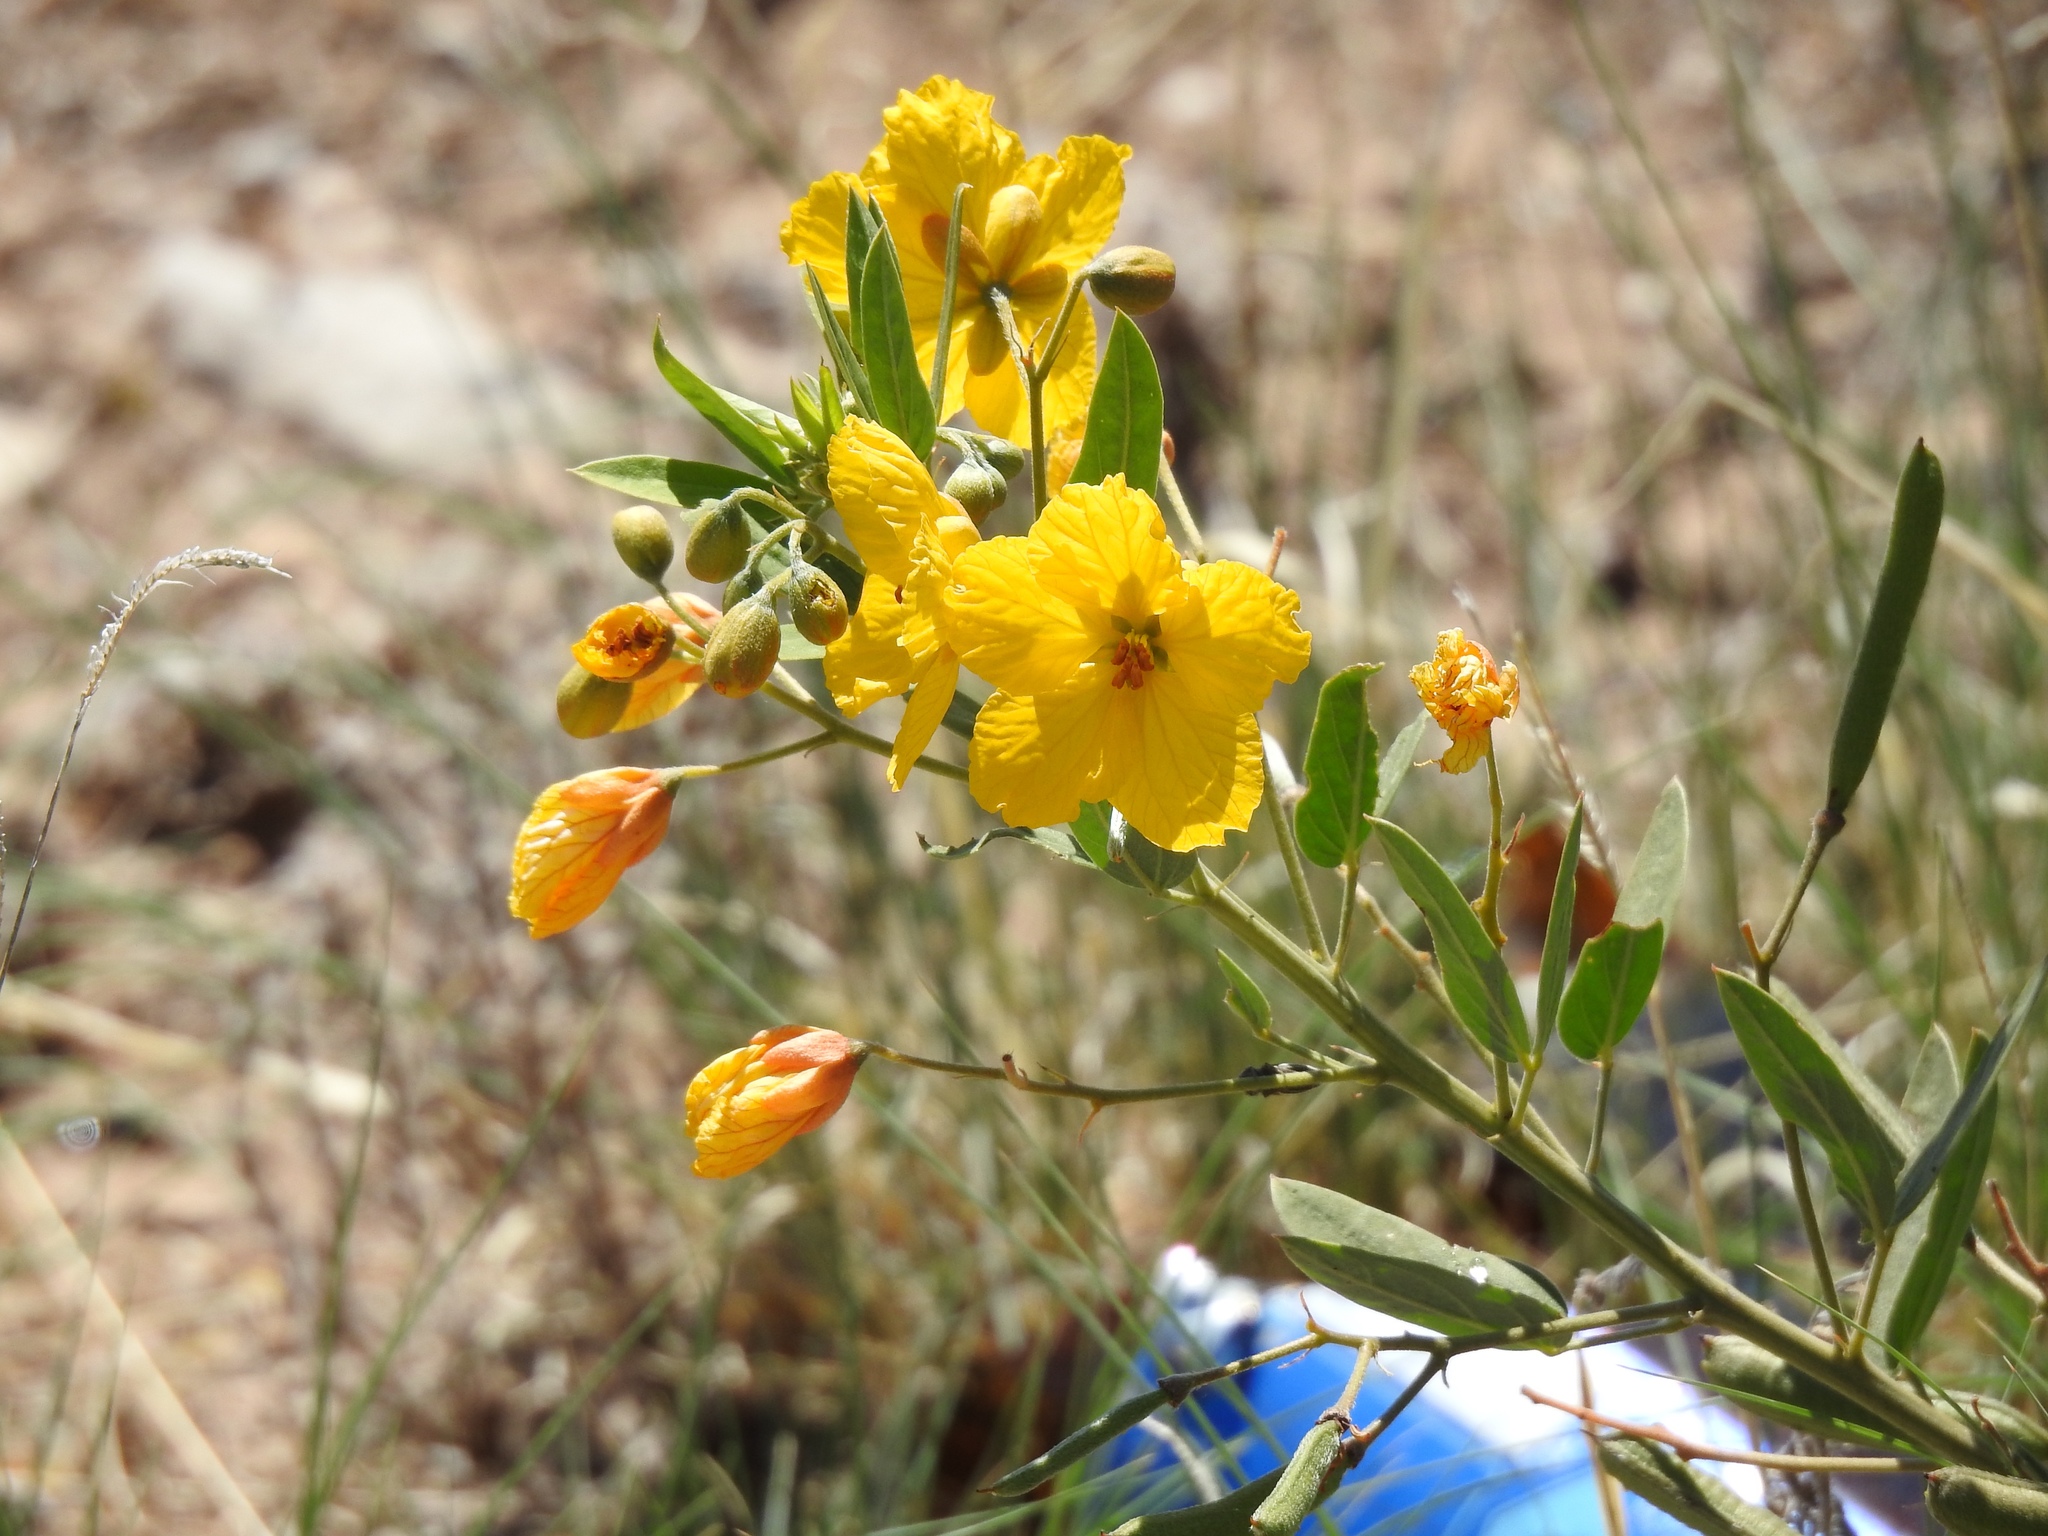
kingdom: Plantae
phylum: Tracheophyta
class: Magnoliopsida
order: Fabales
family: Fabaceae
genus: Senna
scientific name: Senna roemeriana
